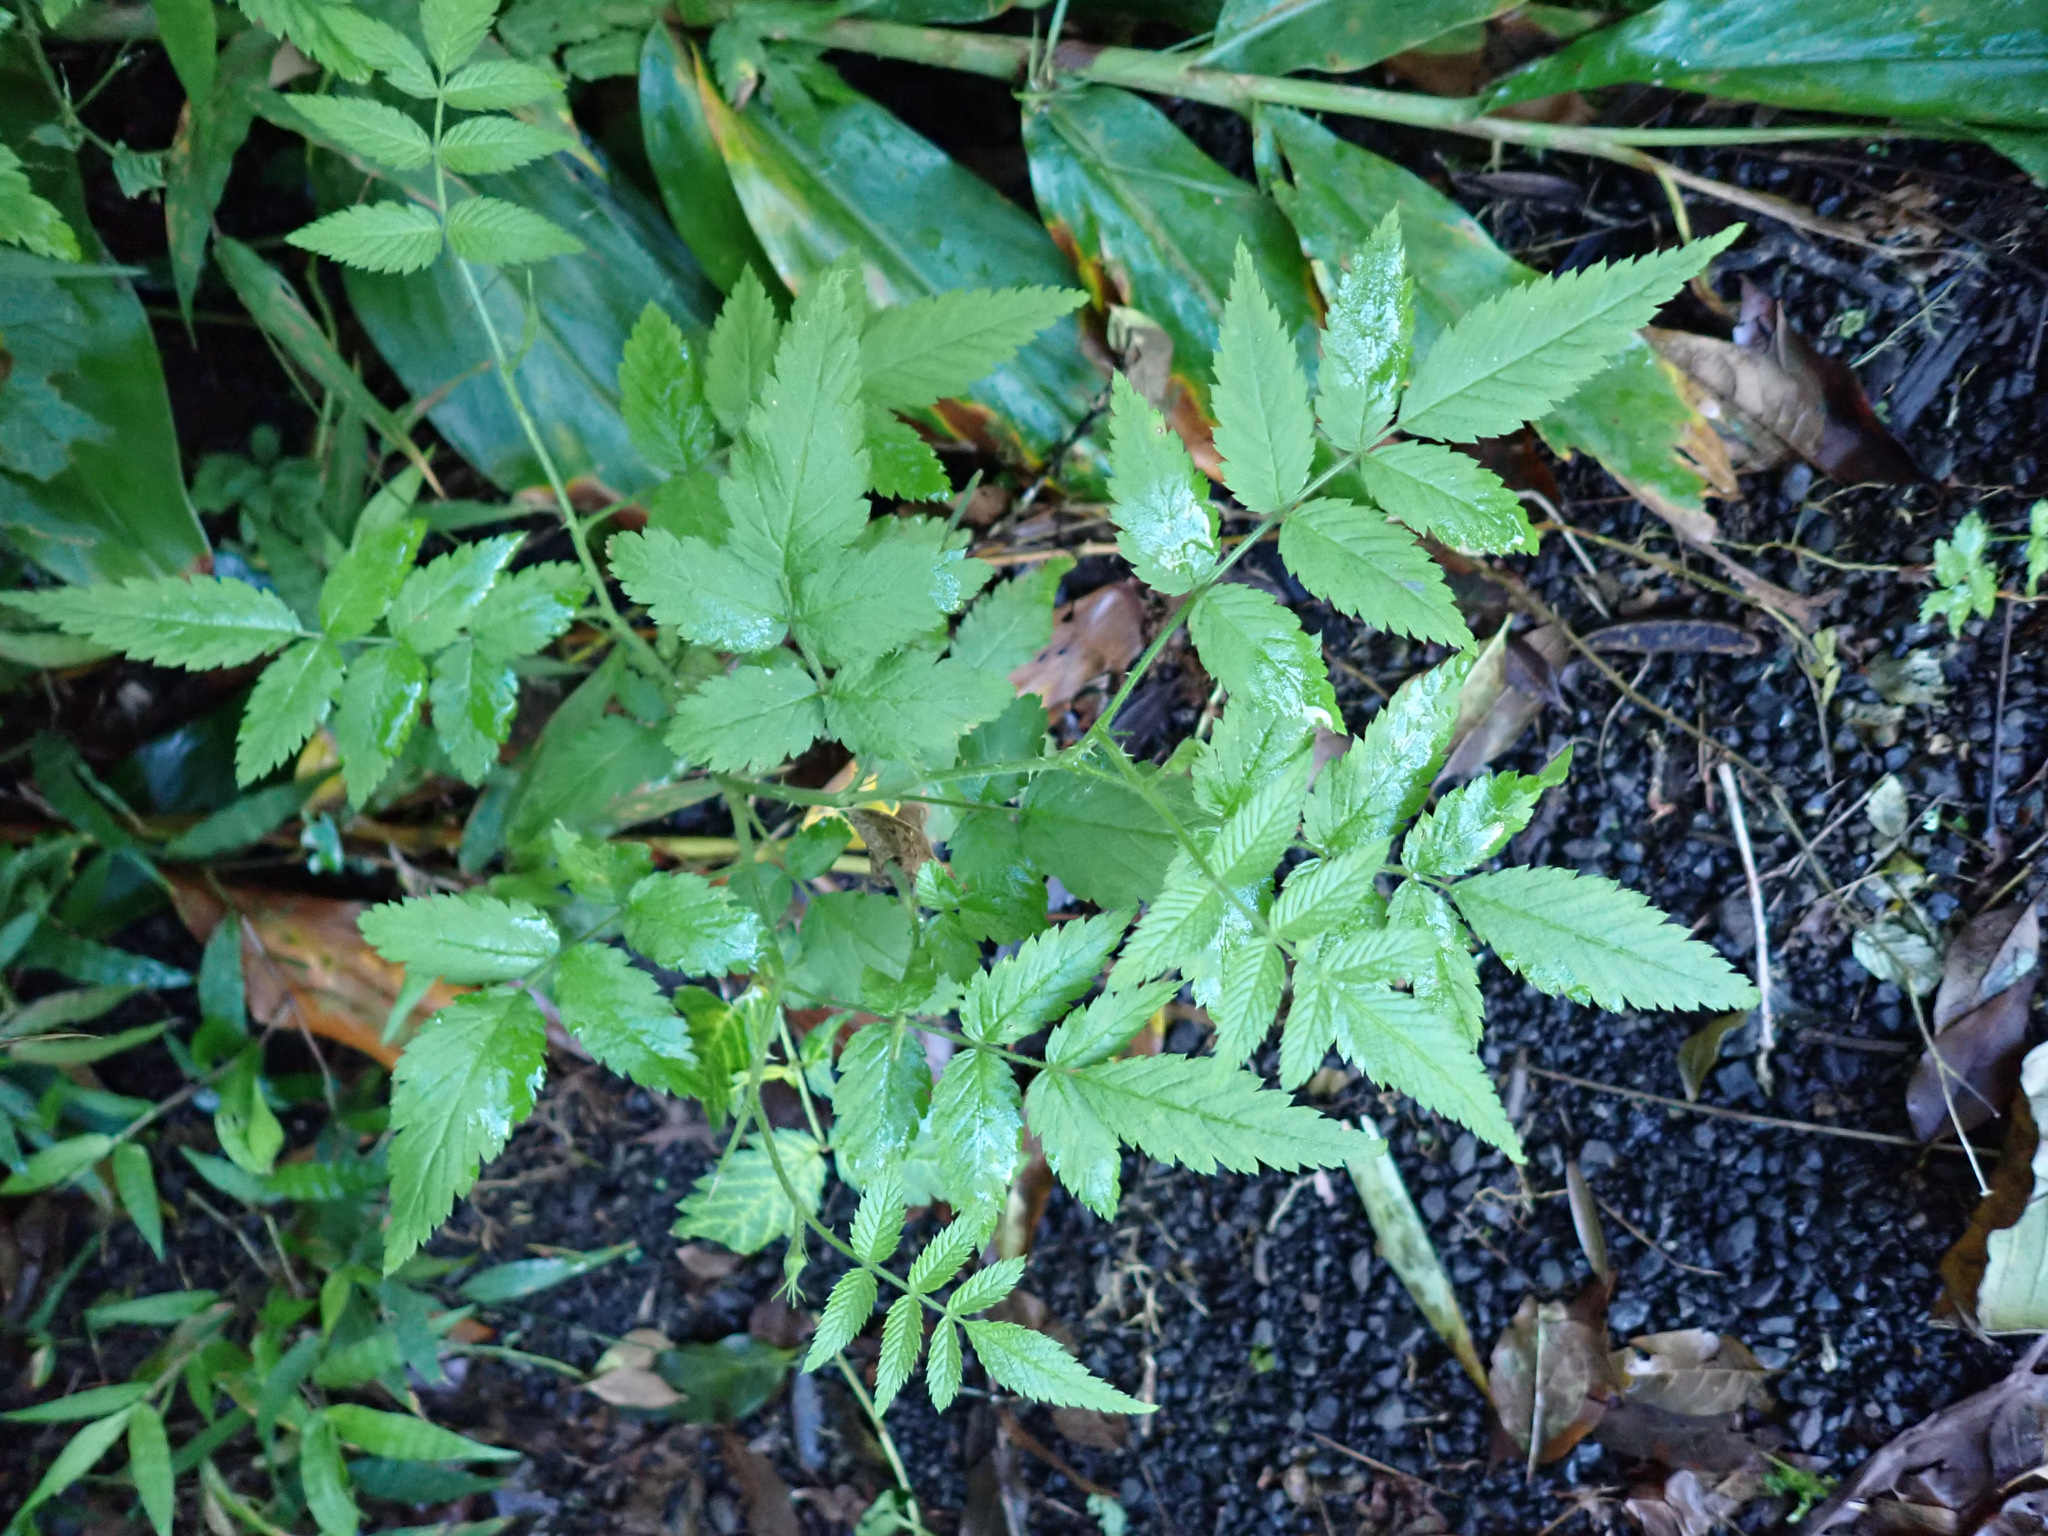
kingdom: Plantae
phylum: Tracheophyta
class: Magnoliopsida
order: Rosales
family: Rosaceae
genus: Rubus
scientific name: Rubus rosifolius
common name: Roseleaf raspberry
